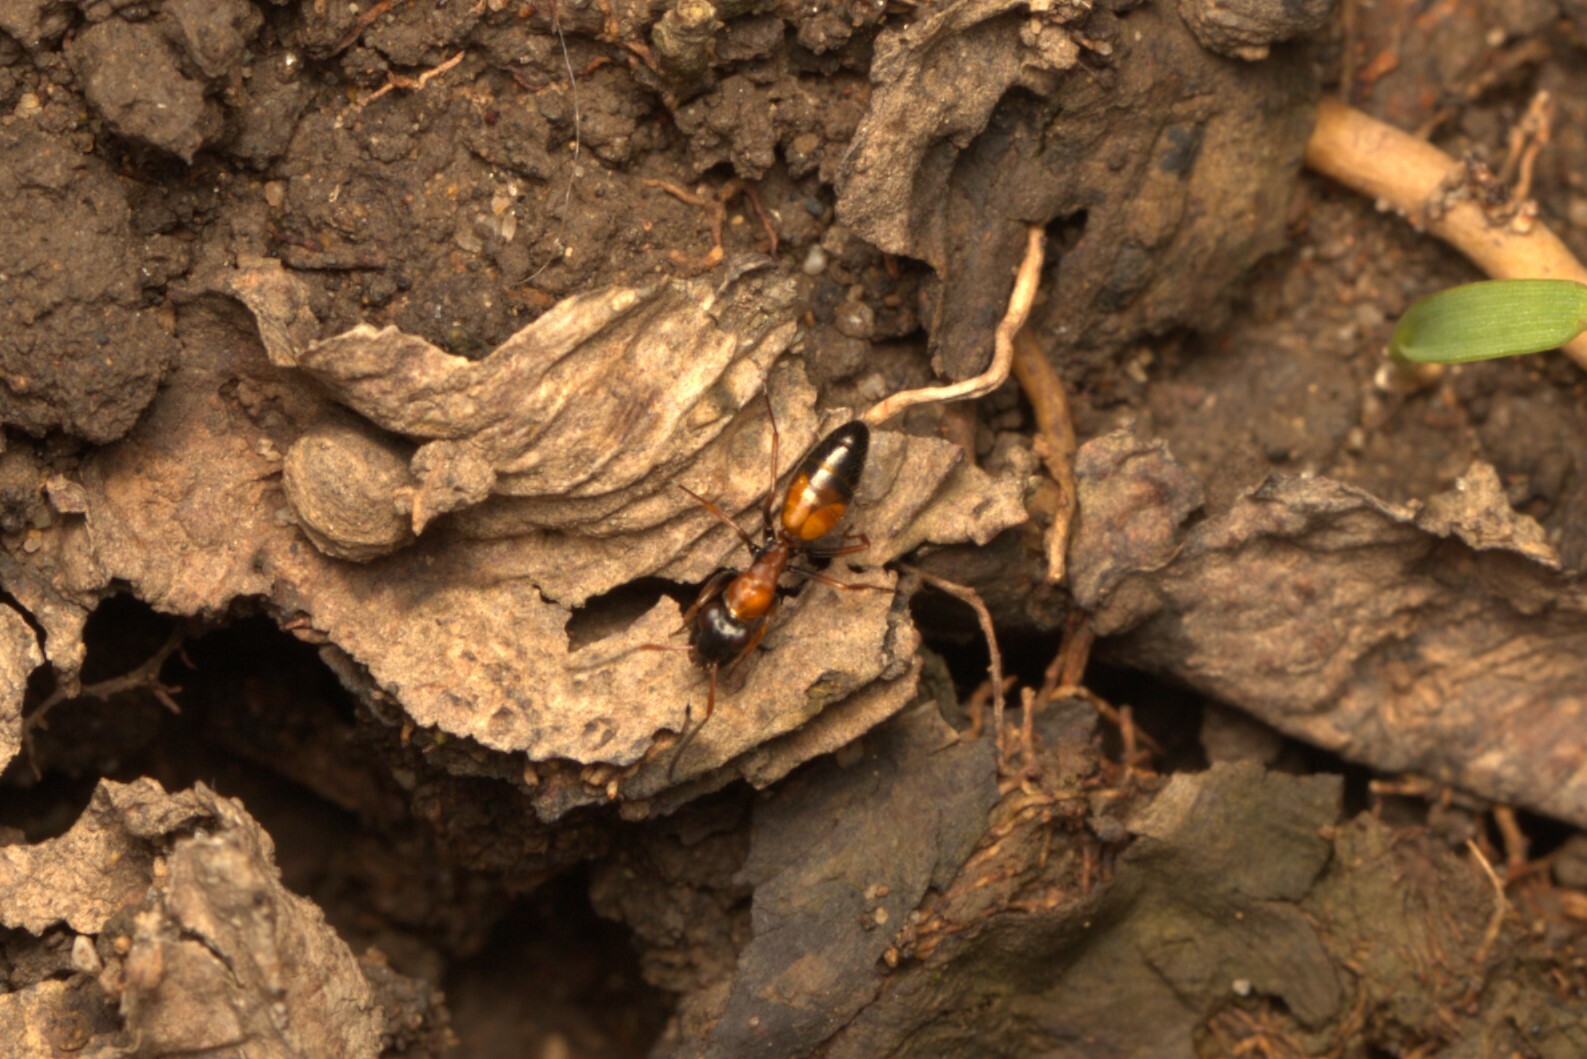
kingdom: Animalia
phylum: Arthropoda
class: Insecta
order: Hymenoptera
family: Formicidae
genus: Opisthopsis
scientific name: Opisthopsis pictus
